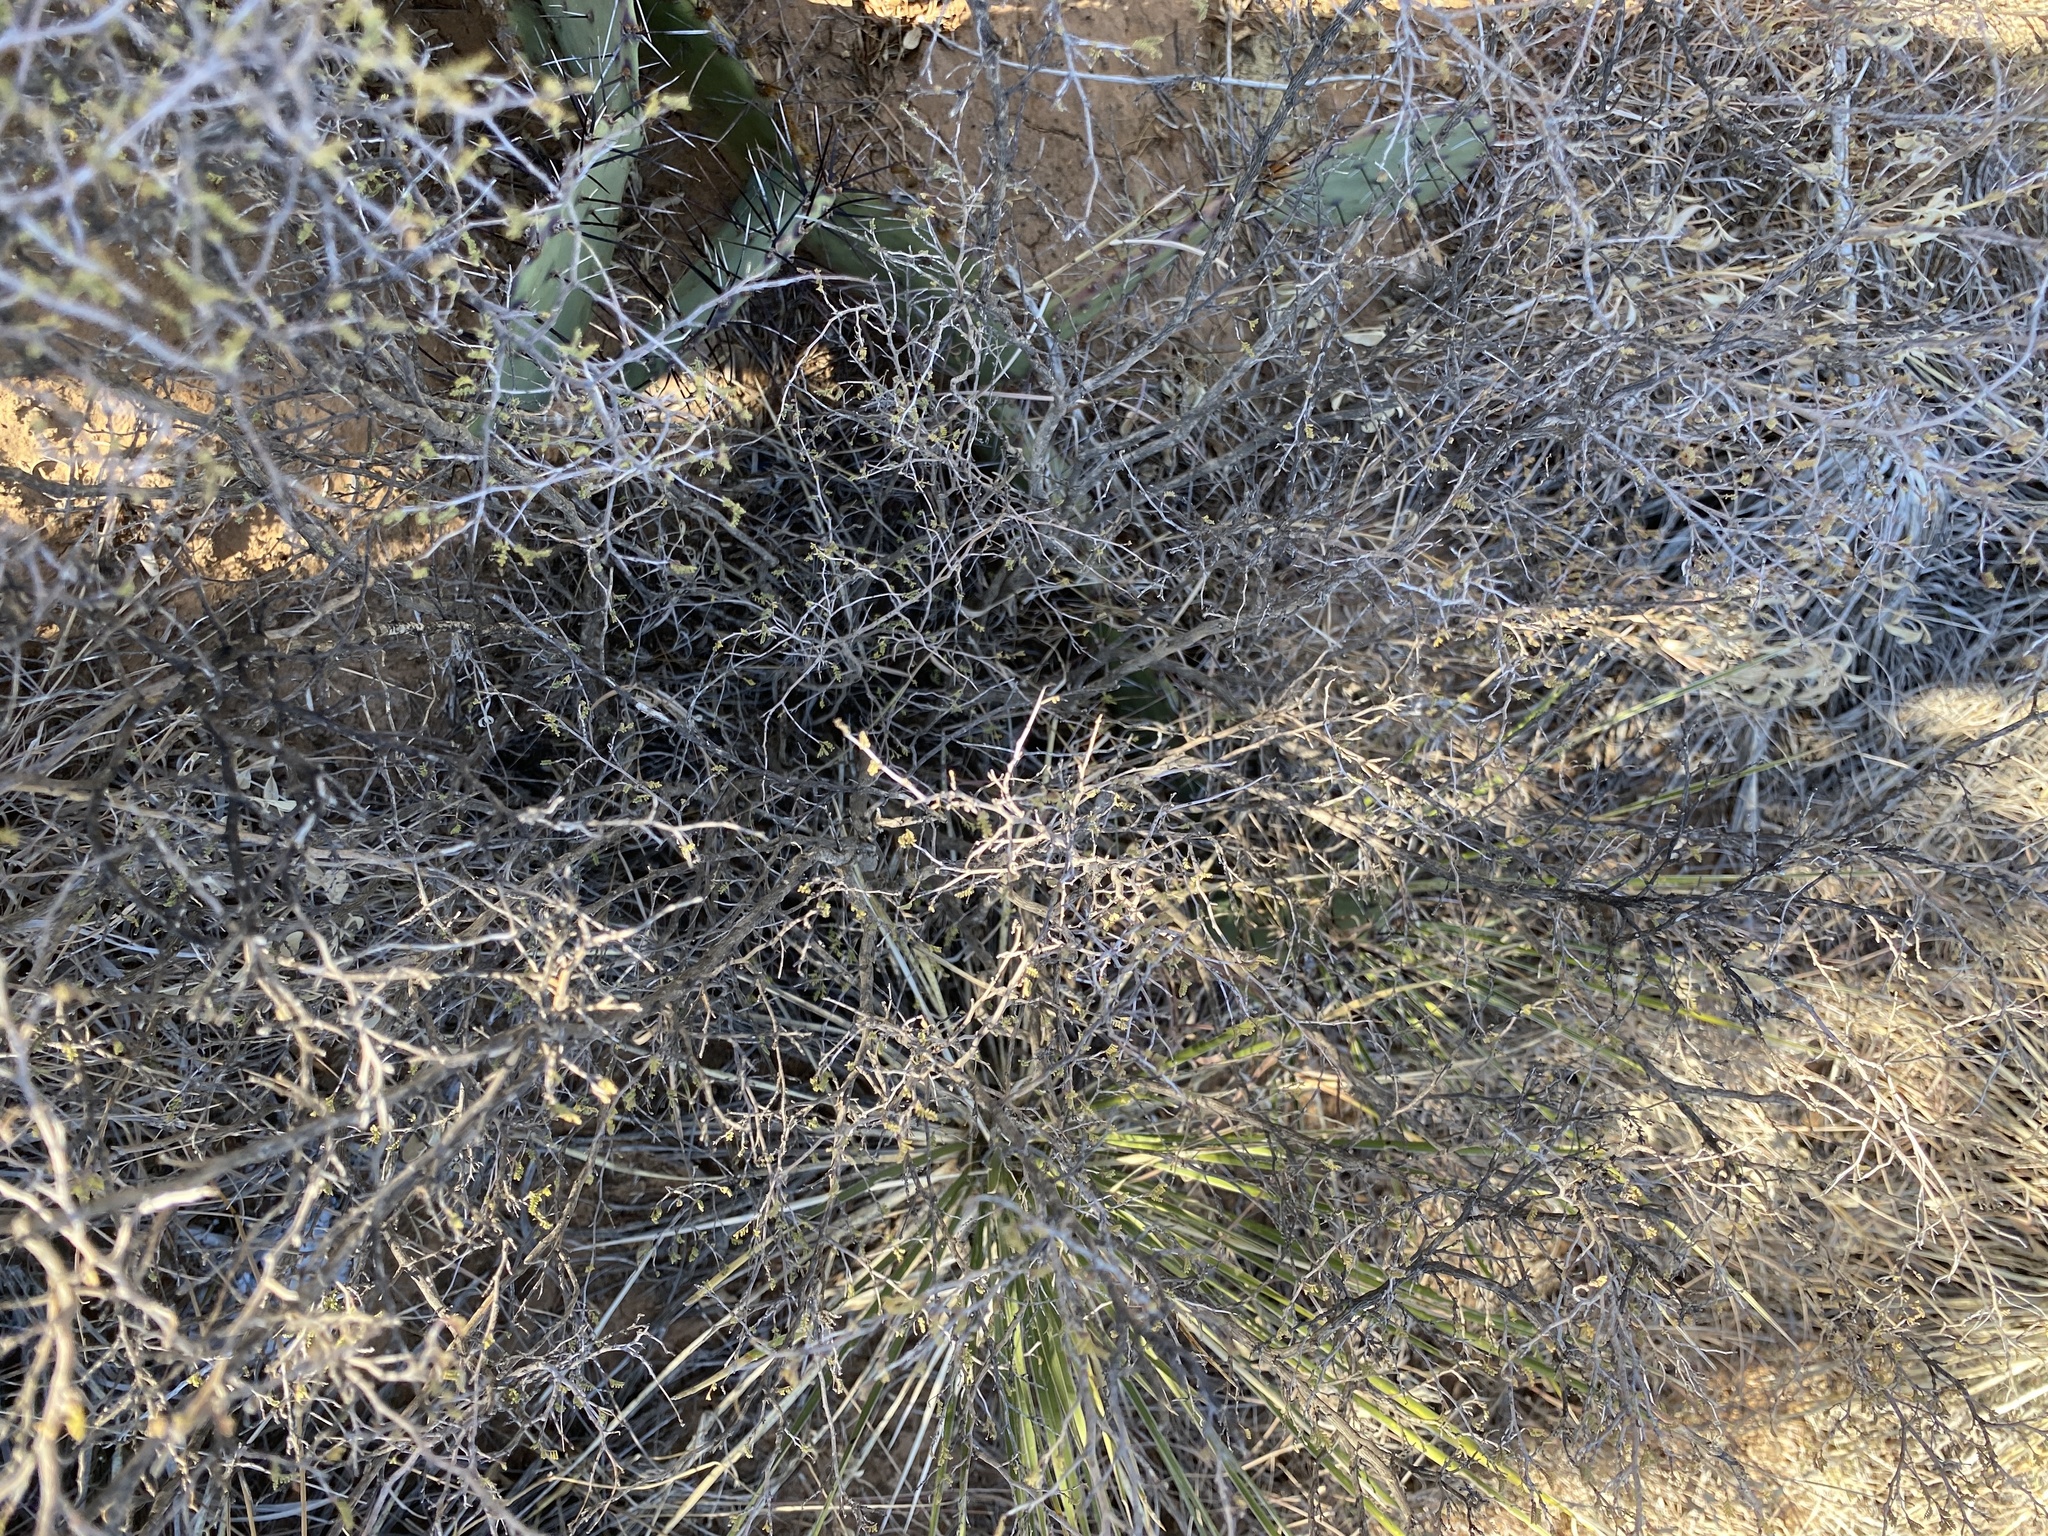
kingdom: Plantae
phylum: Tracheophyta
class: Magnoliopsida
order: Fabales
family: Fabaceae
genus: Dalea
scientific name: Dalea formosa
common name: Feather-plume dalea
